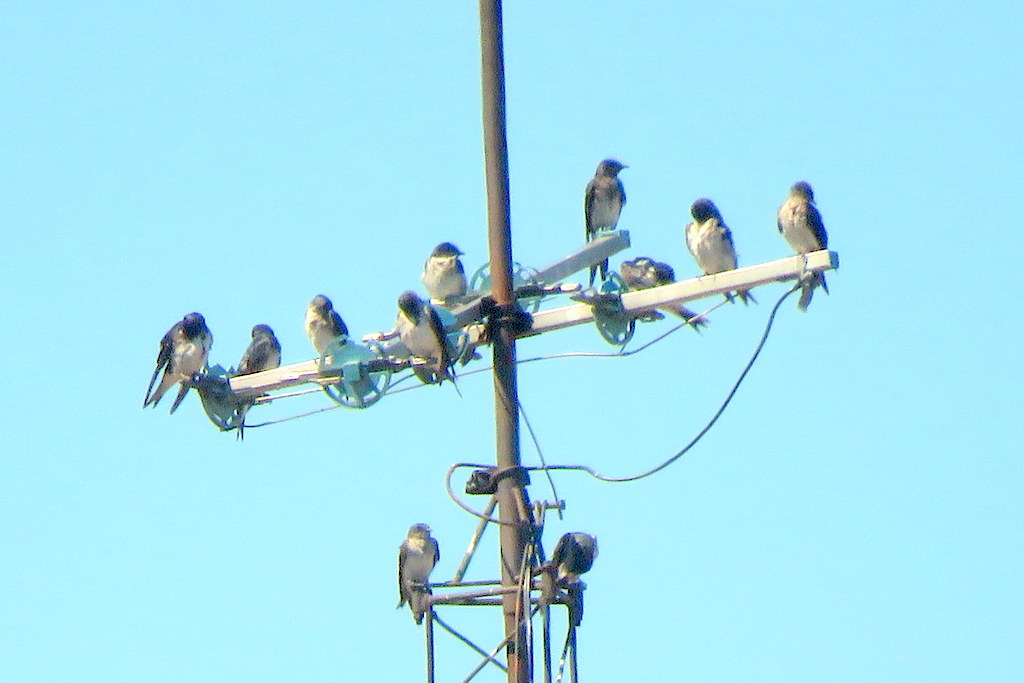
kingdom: Animalia
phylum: Chordata
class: Aves
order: Passeriformes
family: Hirundinidae
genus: Progne
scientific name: Progne chalybea
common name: Grey-breasted martin
